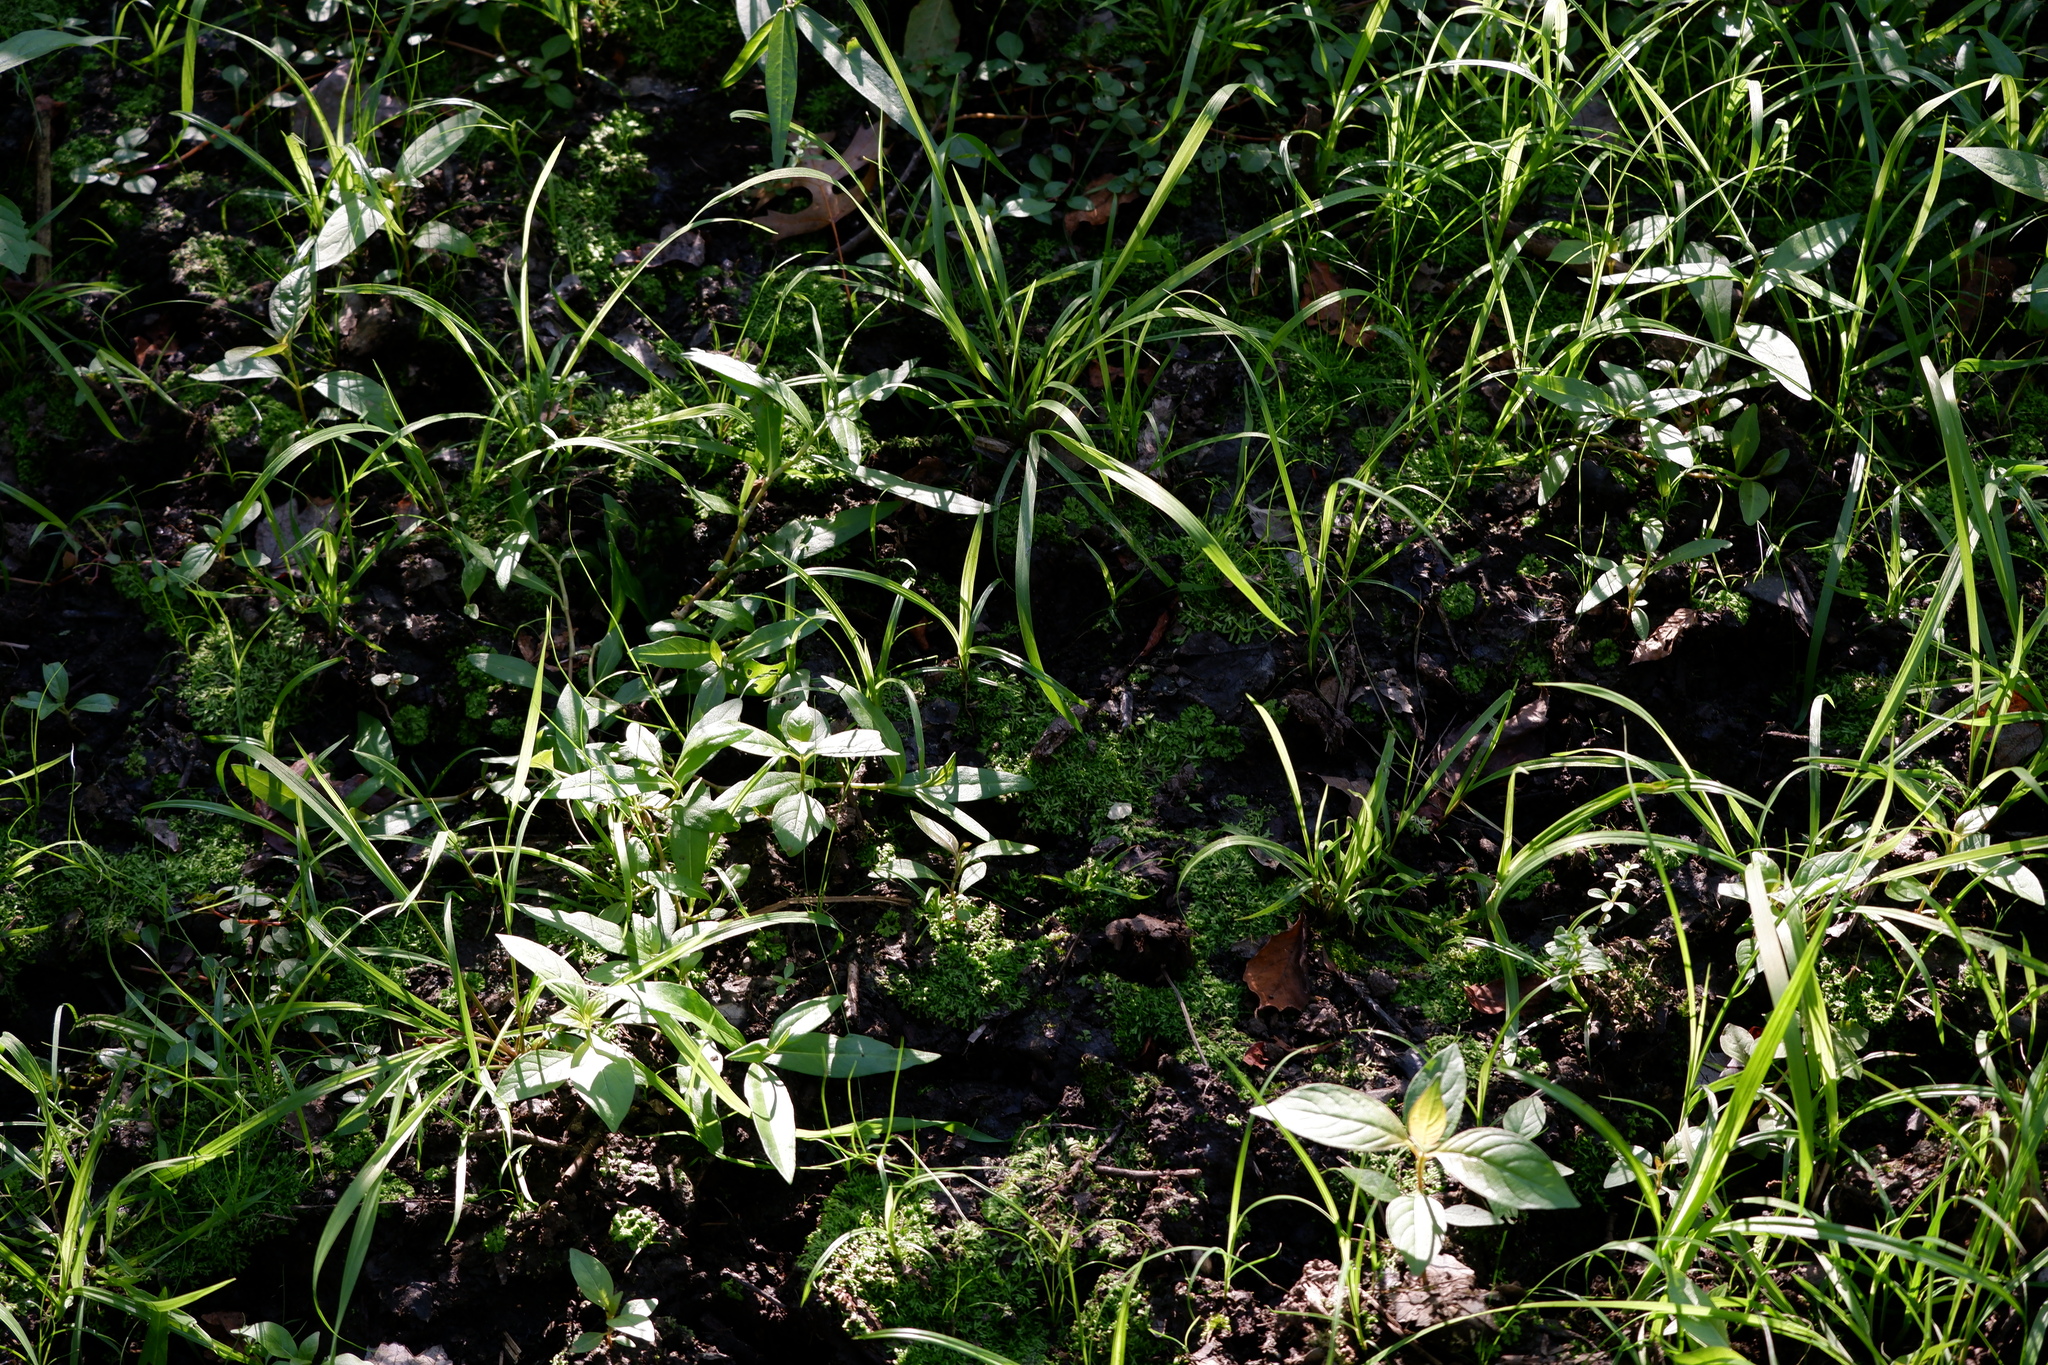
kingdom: Plantae
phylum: Marchantiophyta
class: Marchantiopsida
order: Marchantiales
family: Ricciaceae
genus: Riccia
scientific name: Riccia fluitans
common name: Floating crystalwort
